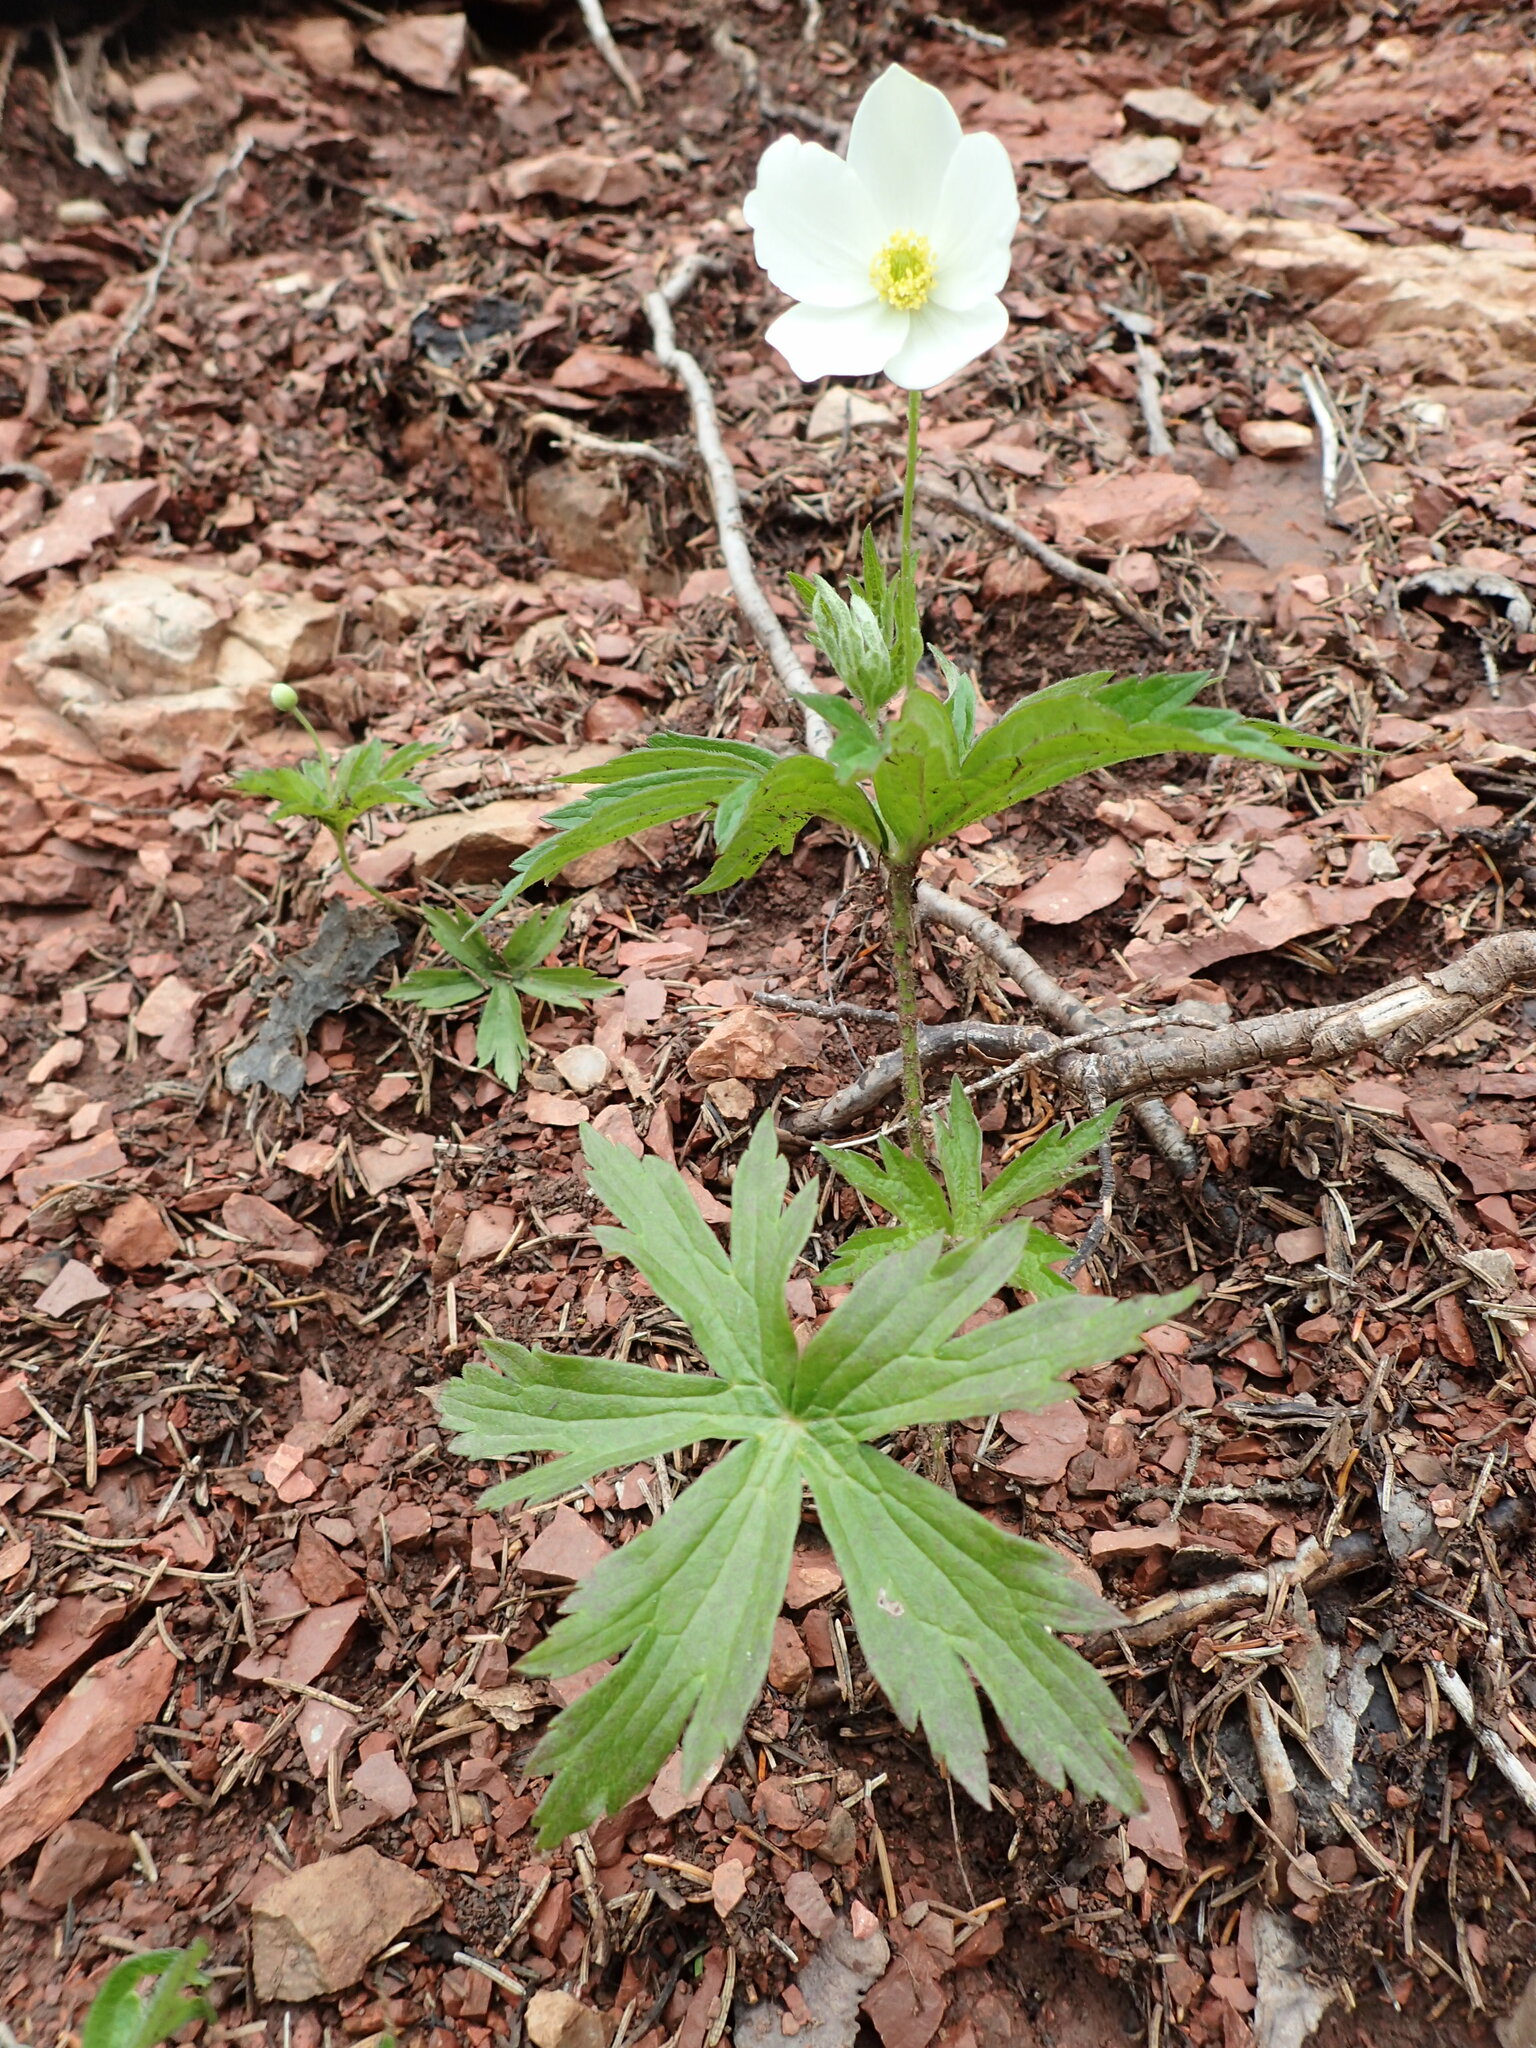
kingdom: Plantae
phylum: Tracheophyta
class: Magnoliopsida
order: Ranunculales
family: Ranunculaceae
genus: Anemonastrum
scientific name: Anemonastrum canadense
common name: Canada anemone
